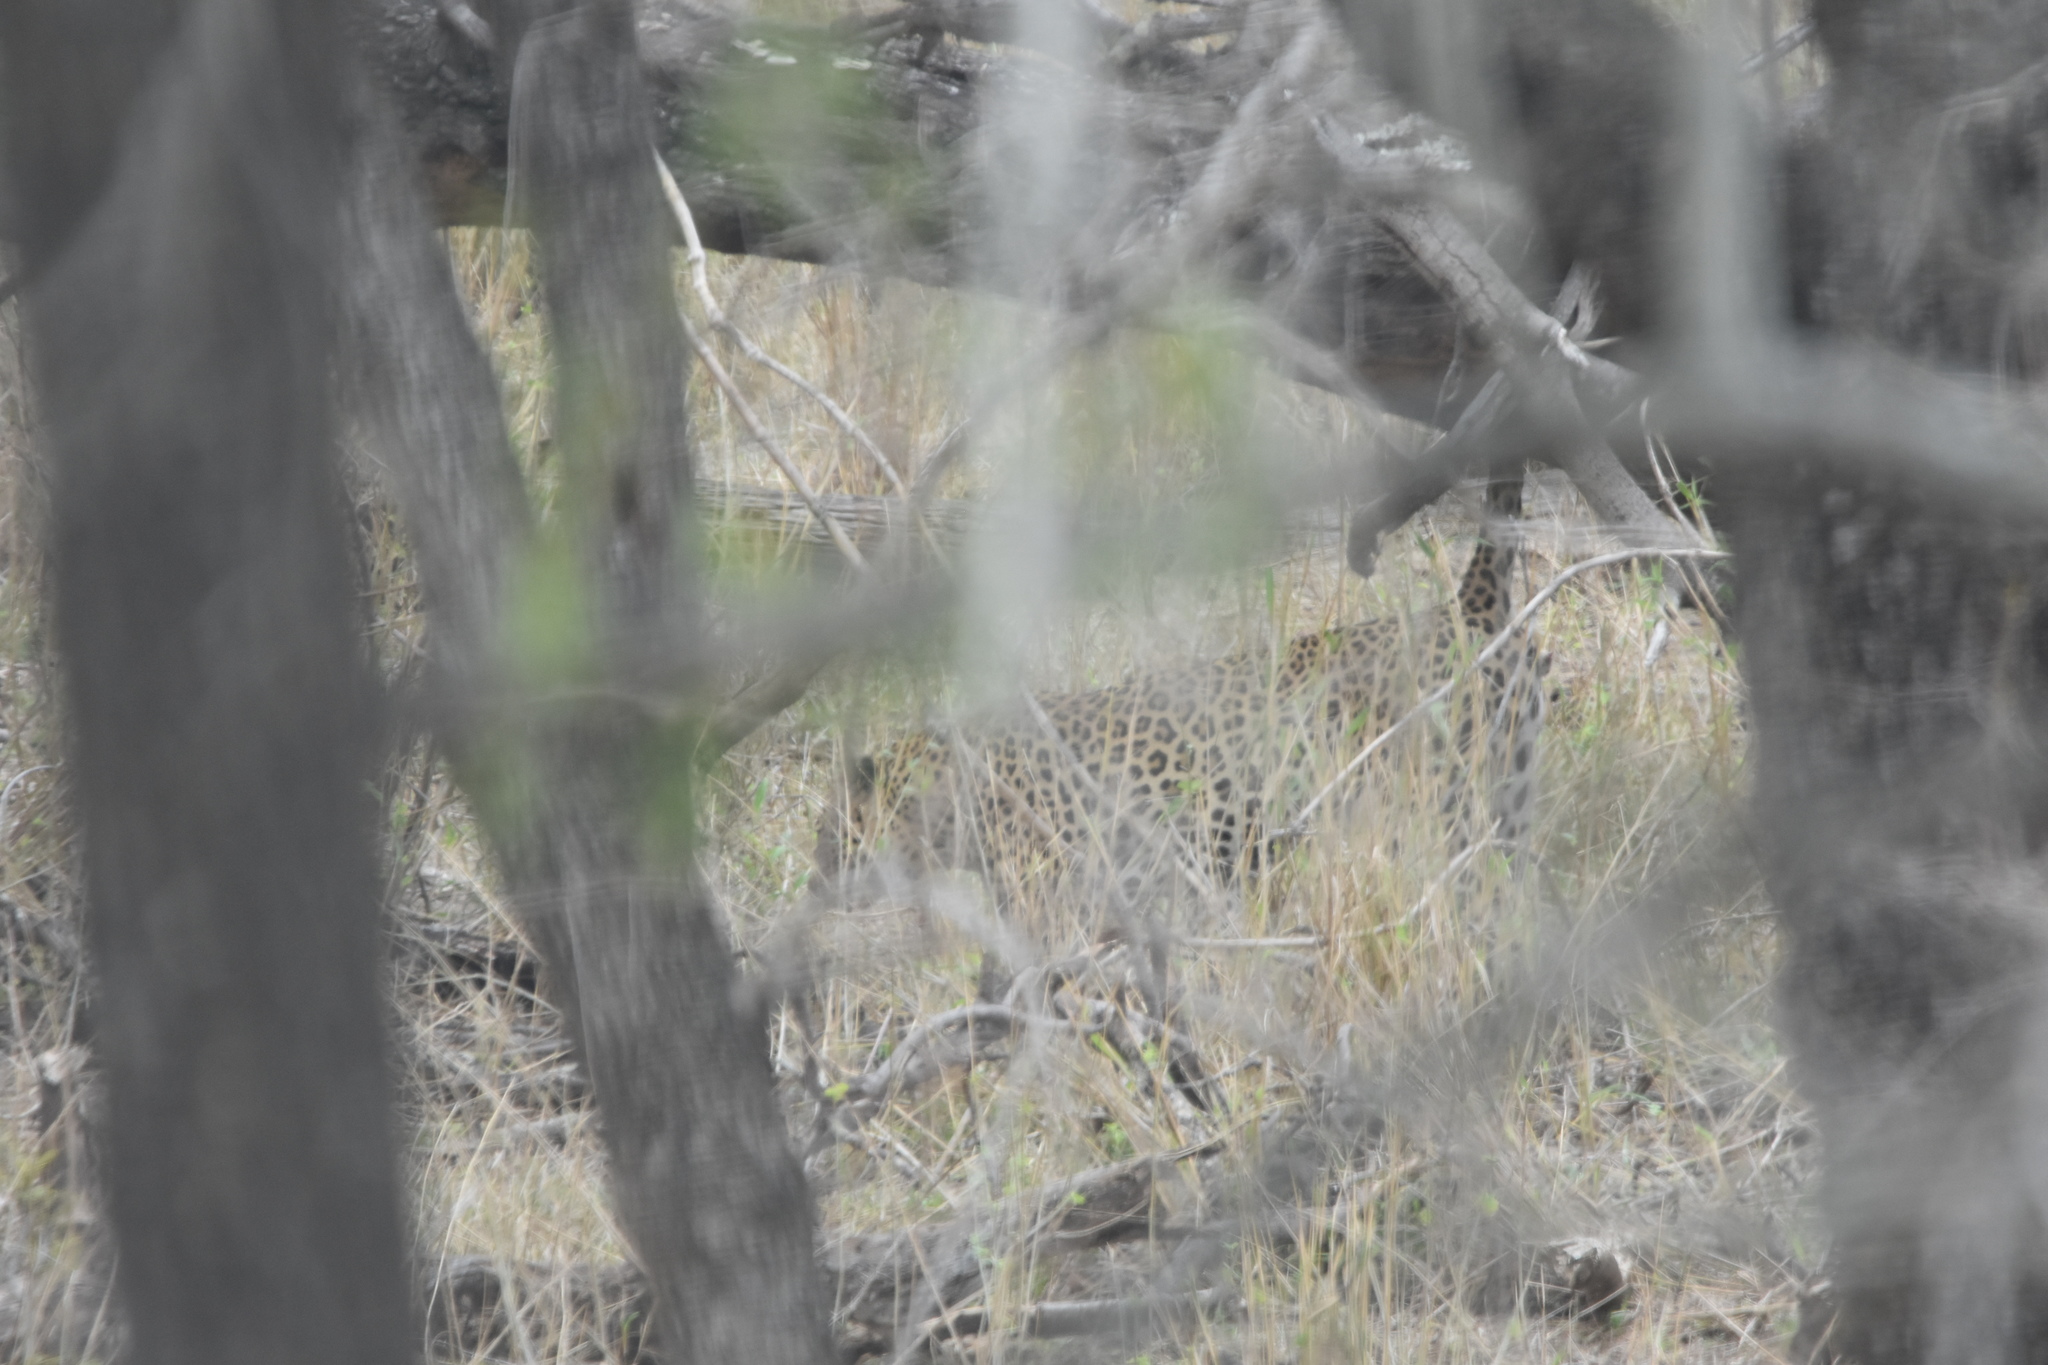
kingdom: Animalia
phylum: Chordata
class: Mammalia
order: Carnivora
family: Felidae
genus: Panthera
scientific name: Panthera pardus
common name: Leopard
